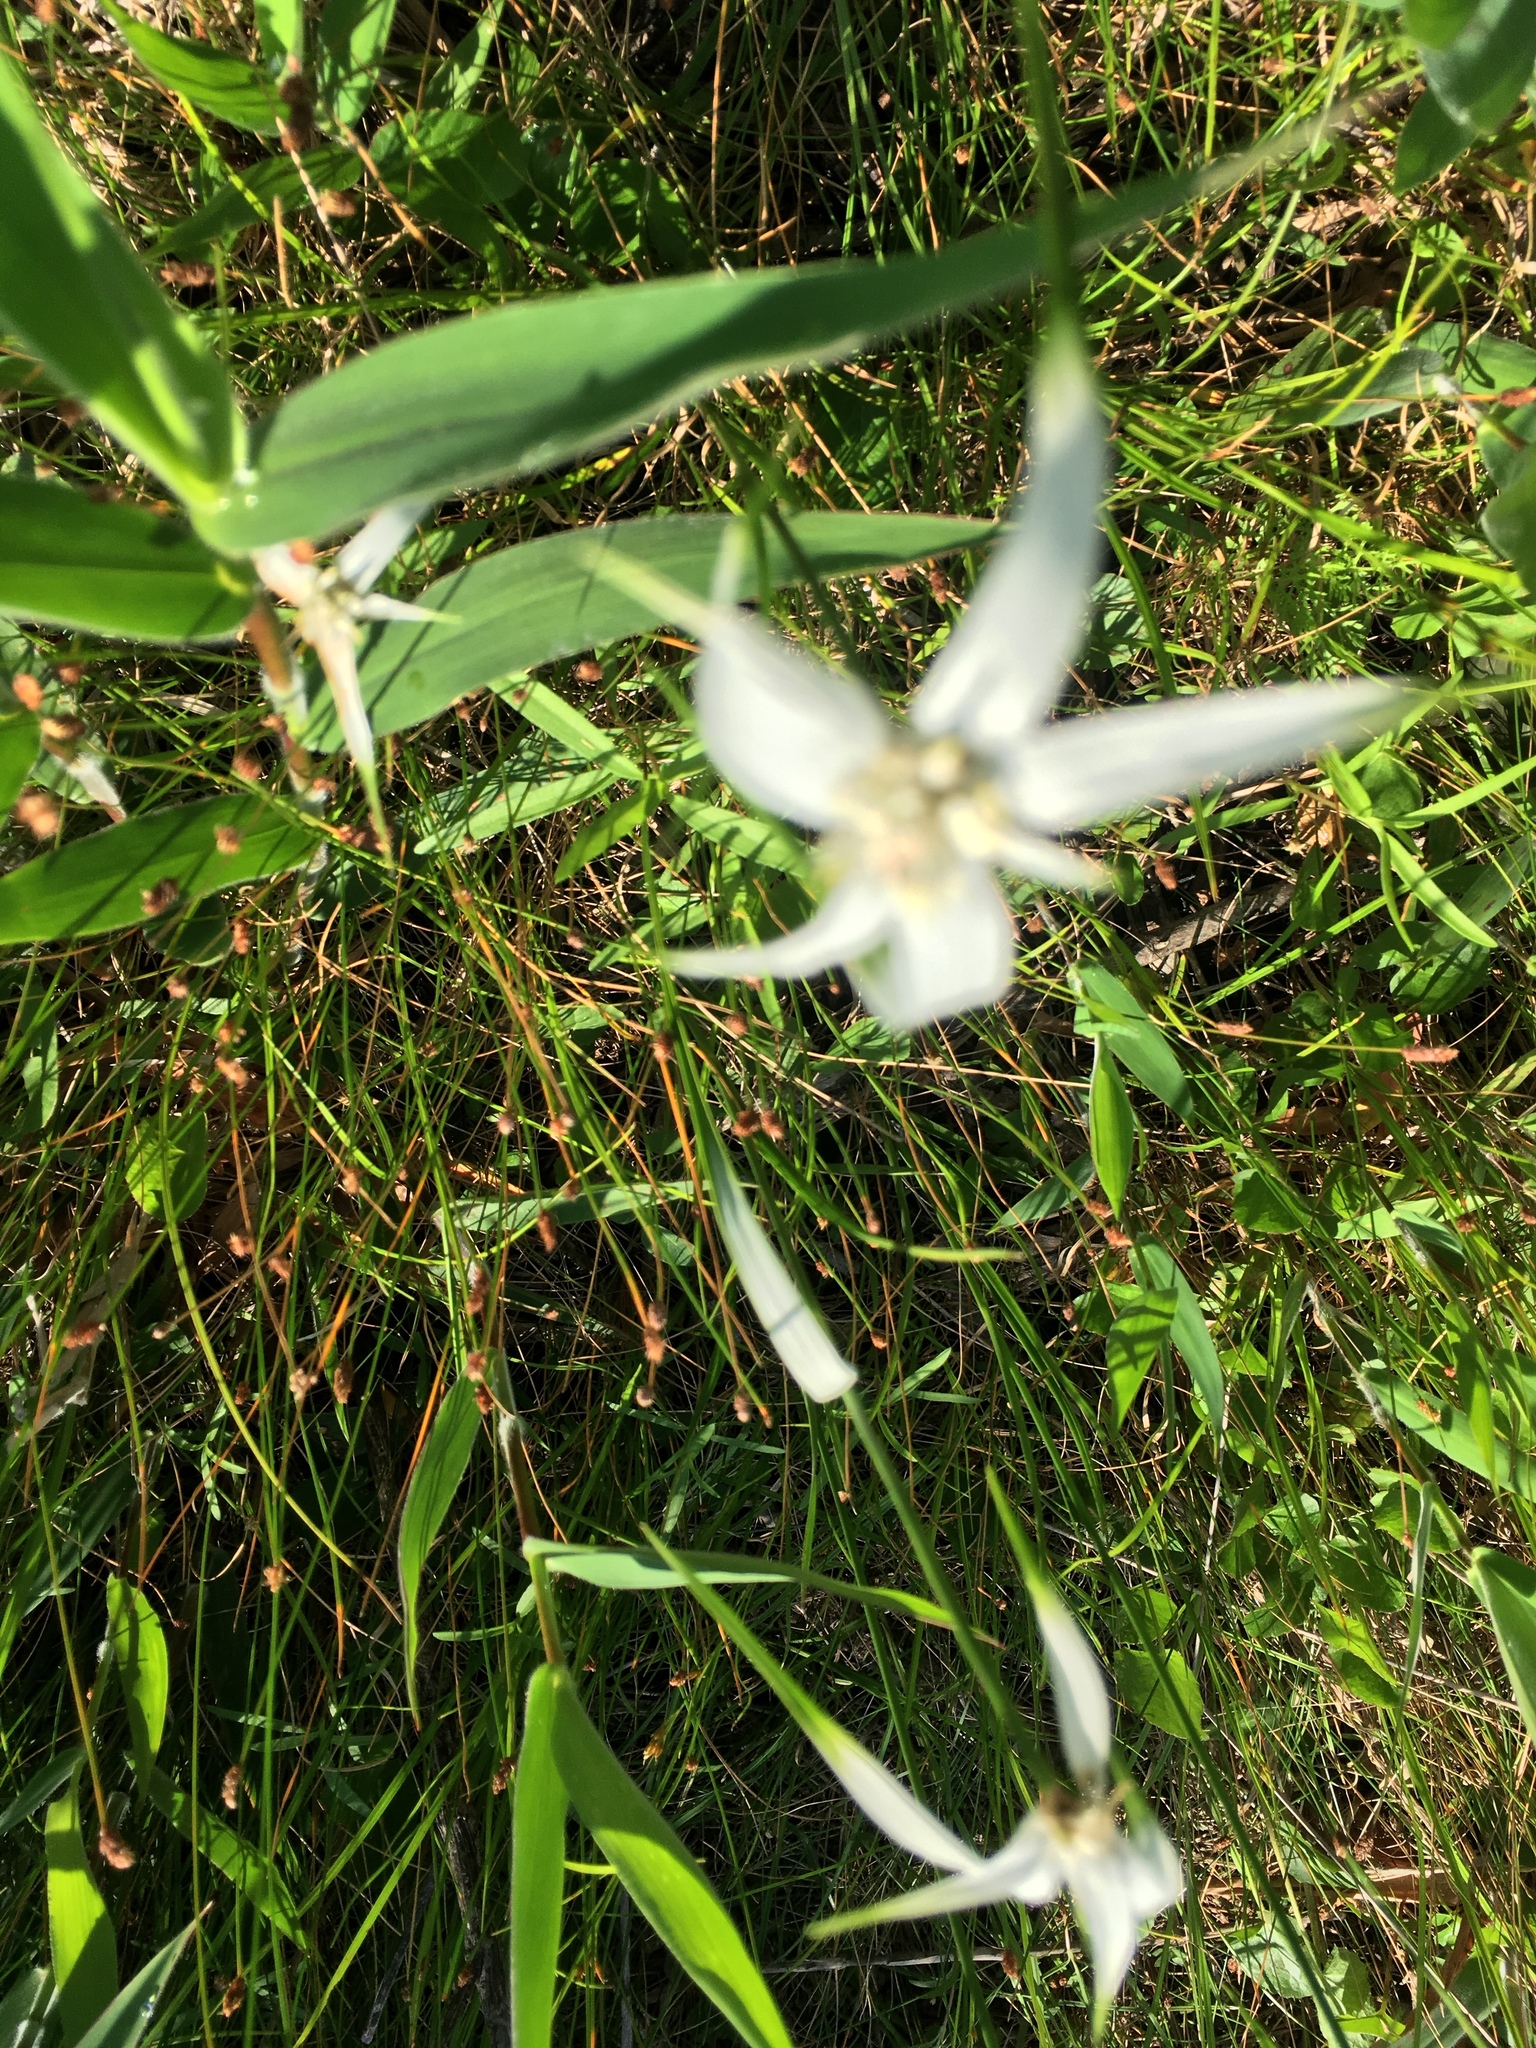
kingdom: Plantae
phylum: Tracheophyta
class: Liliopsida
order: Poales
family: Cyperaceae
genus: Rhynchospora
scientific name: Rhynchospora colorata
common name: Star sedge
